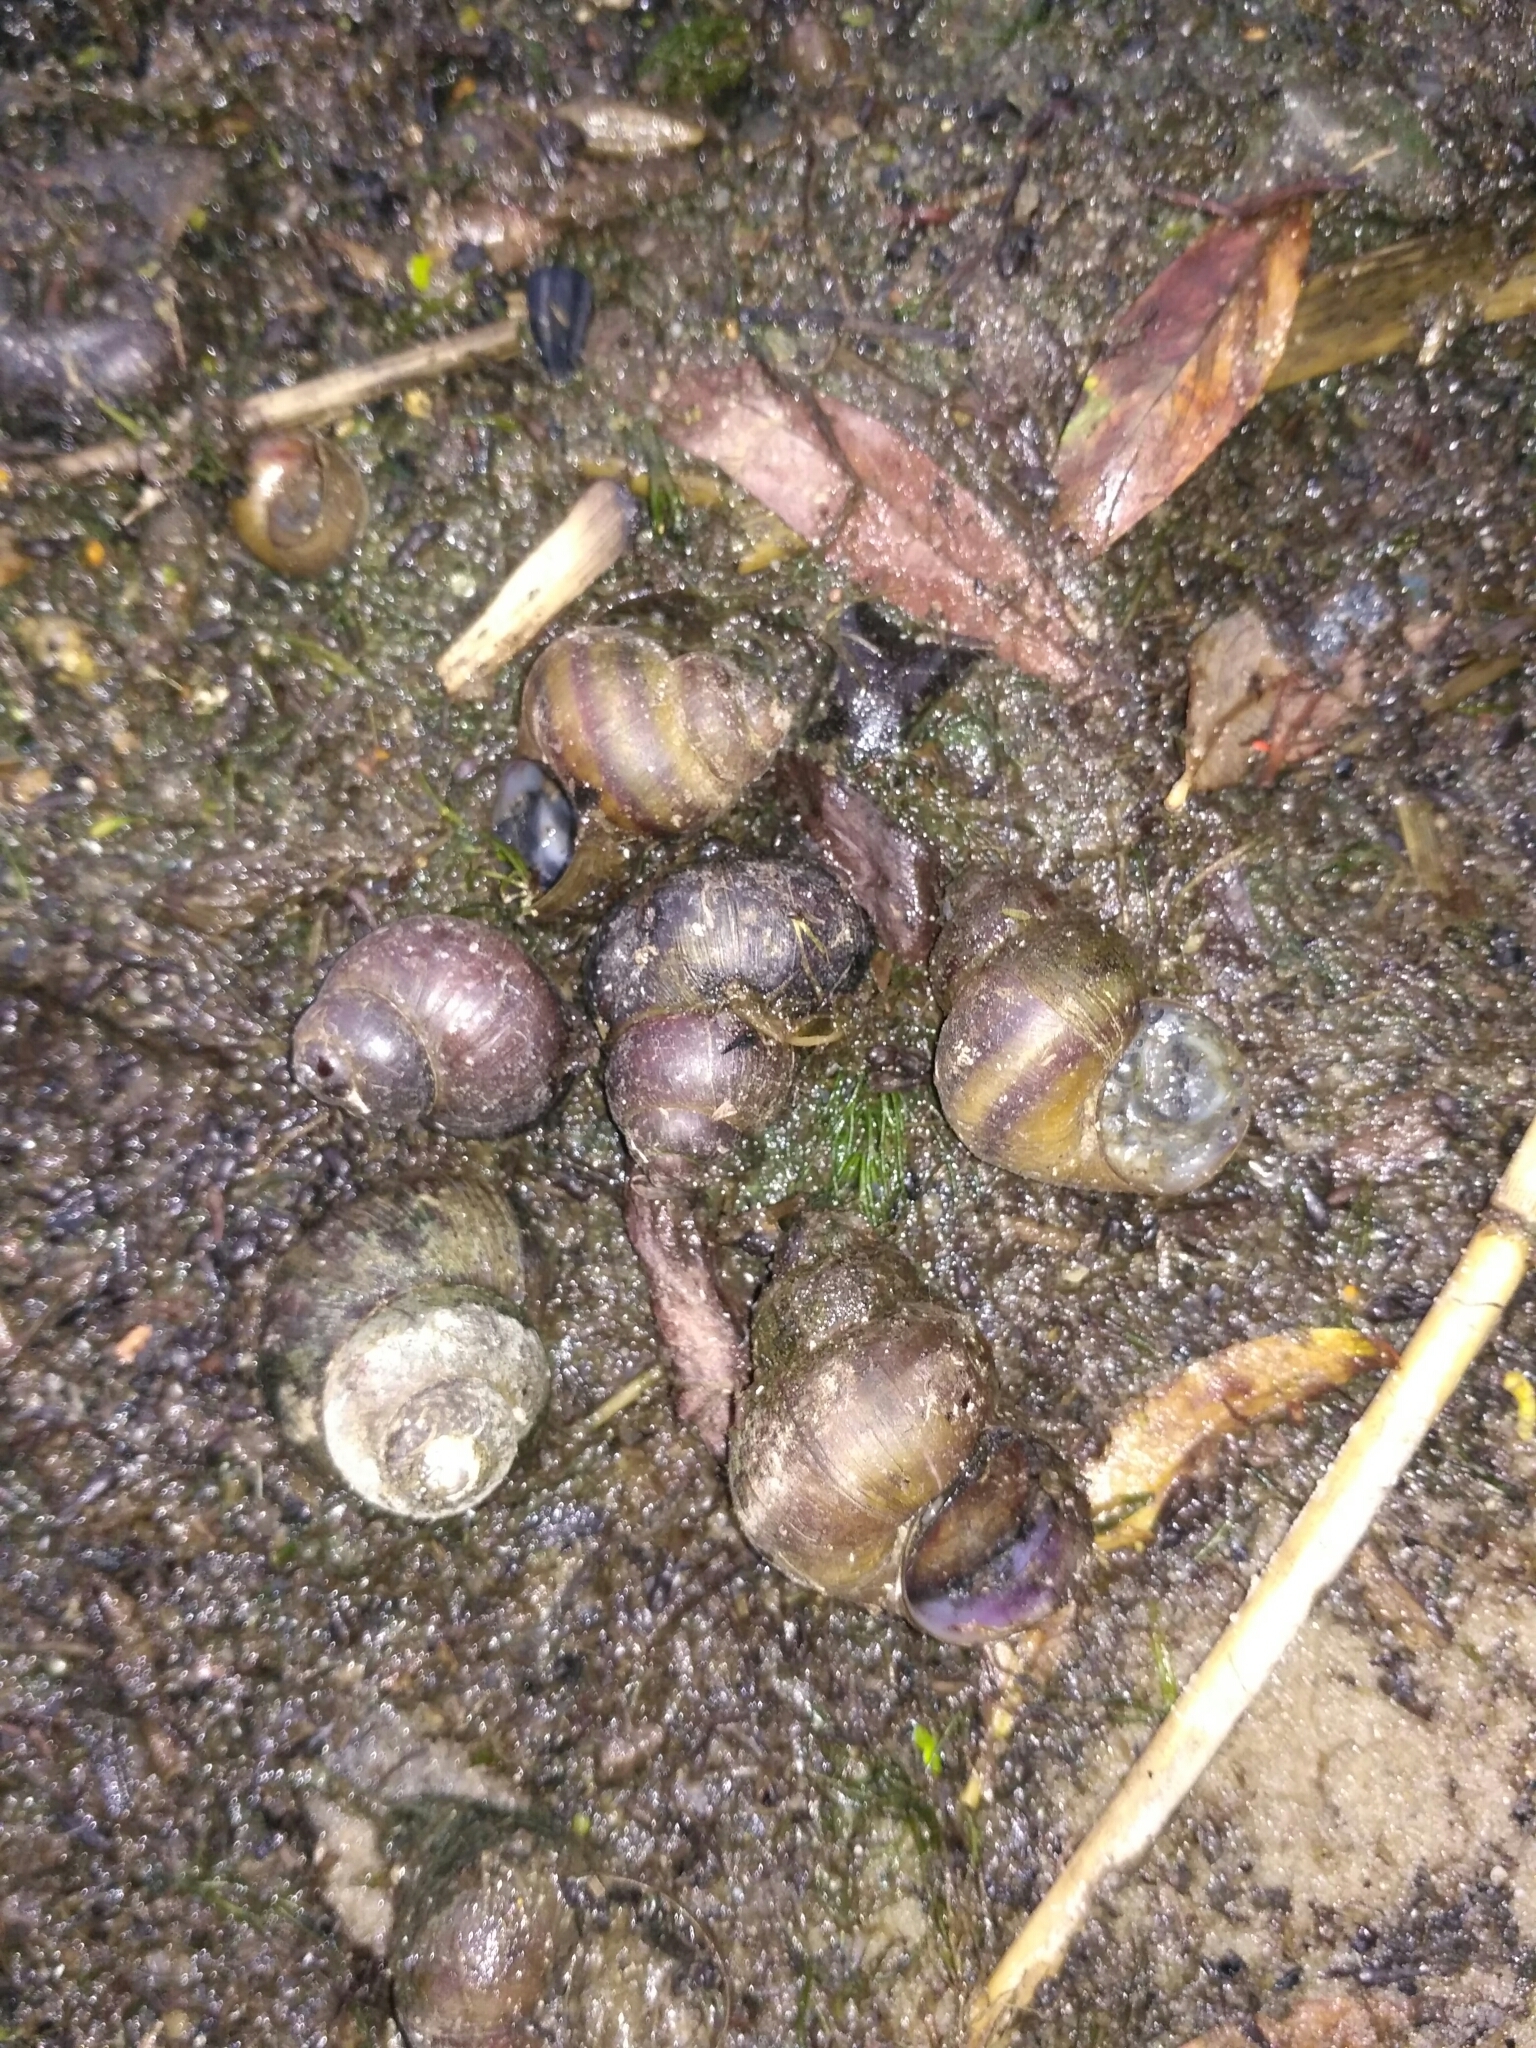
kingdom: Animalia
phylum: Mollusca
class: Gastropoda
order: Architaenioglossa
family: Viviparidae
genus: Viviparus
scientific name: Viviparus viviparus
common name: River snail
